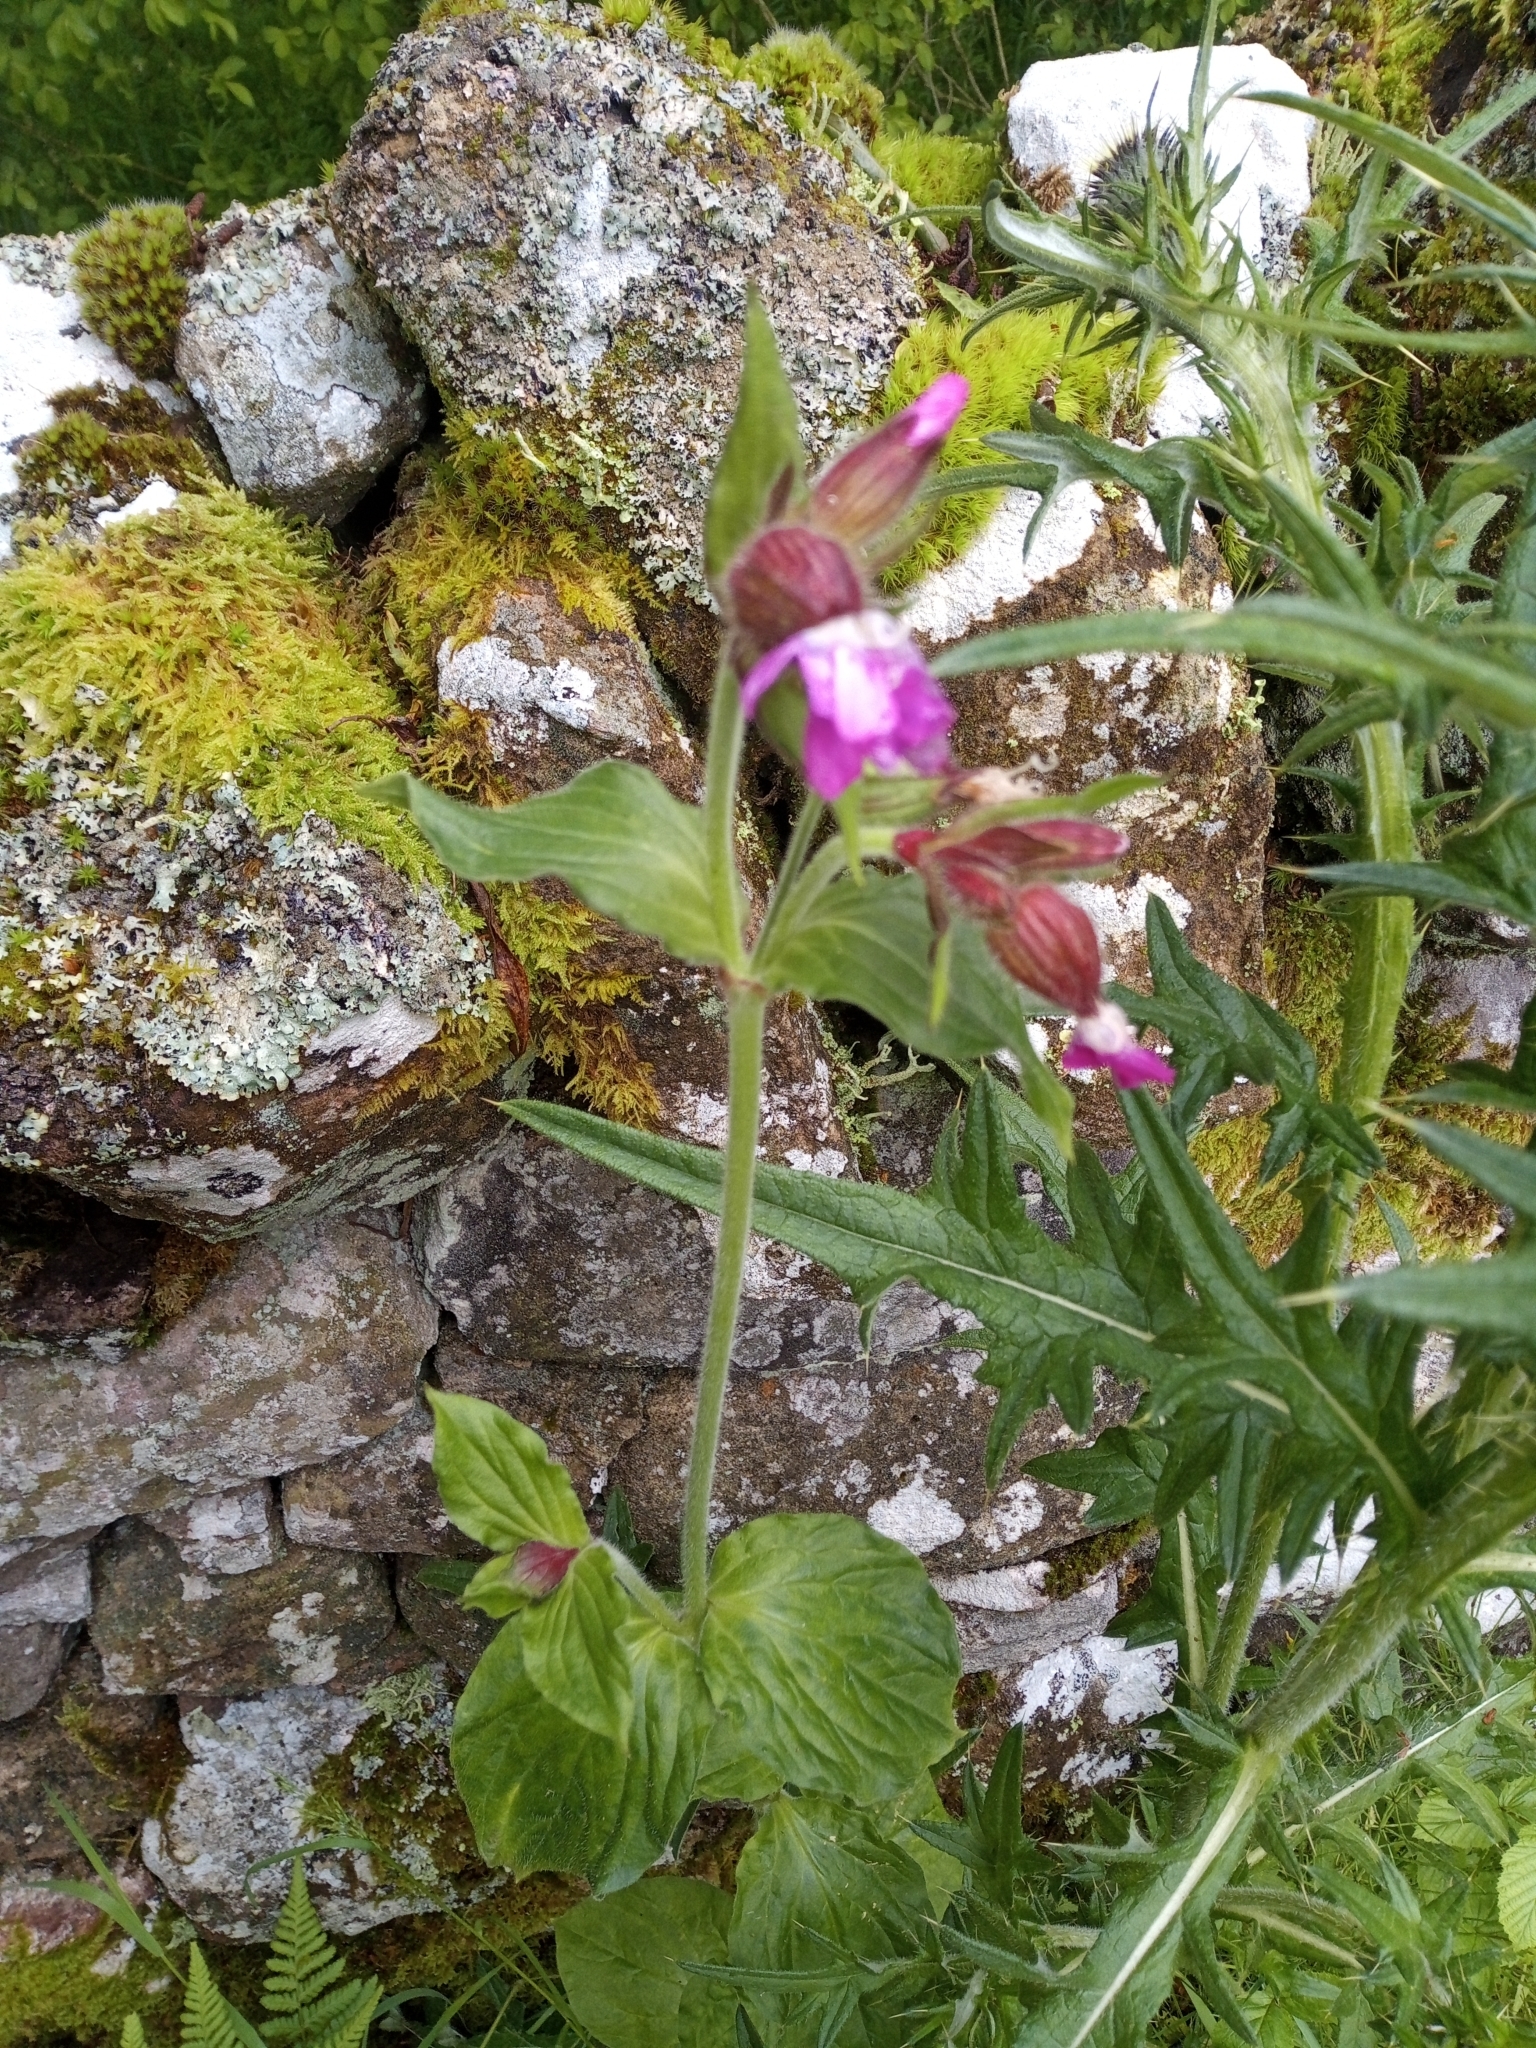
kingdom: Plantae
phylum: Tracheophyta
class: Magnoliopsida
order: Caryophyllales
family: Caryophyllaceae
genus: Silene
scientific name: Silene dioica
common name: Red campion
